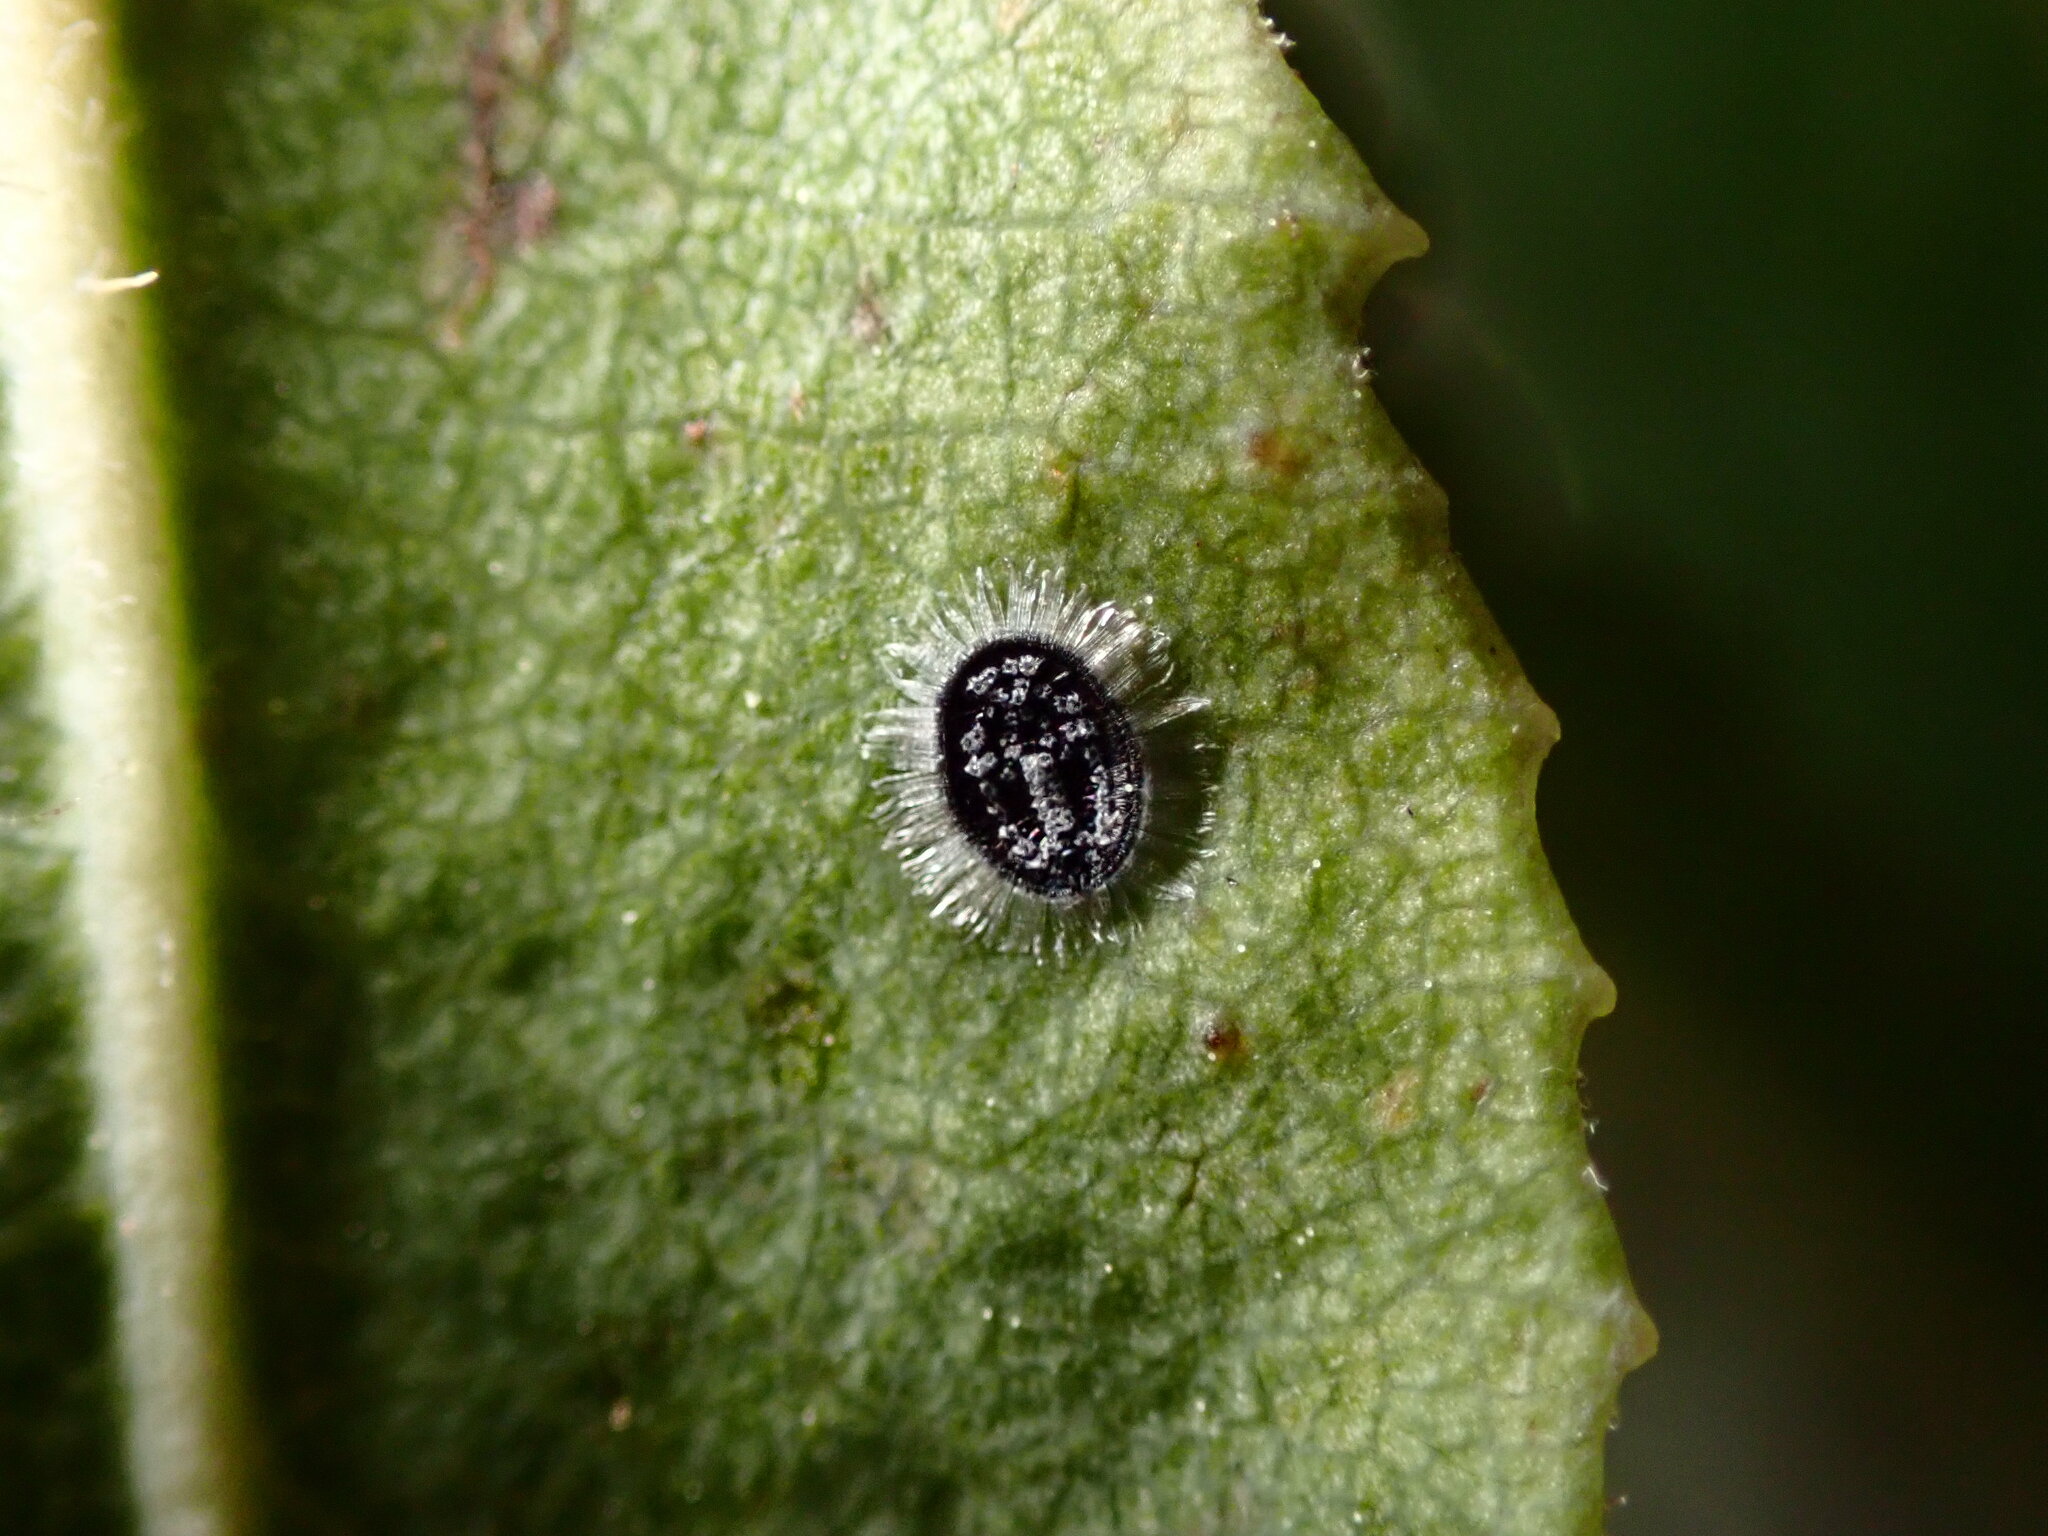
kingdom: Animalia
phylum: Arthropoda
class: Insecta
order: Hemiptera
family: Aleyrodidae
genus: Aleuroparadoxus
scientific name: Aleuroparadoxus arctostaphyli
